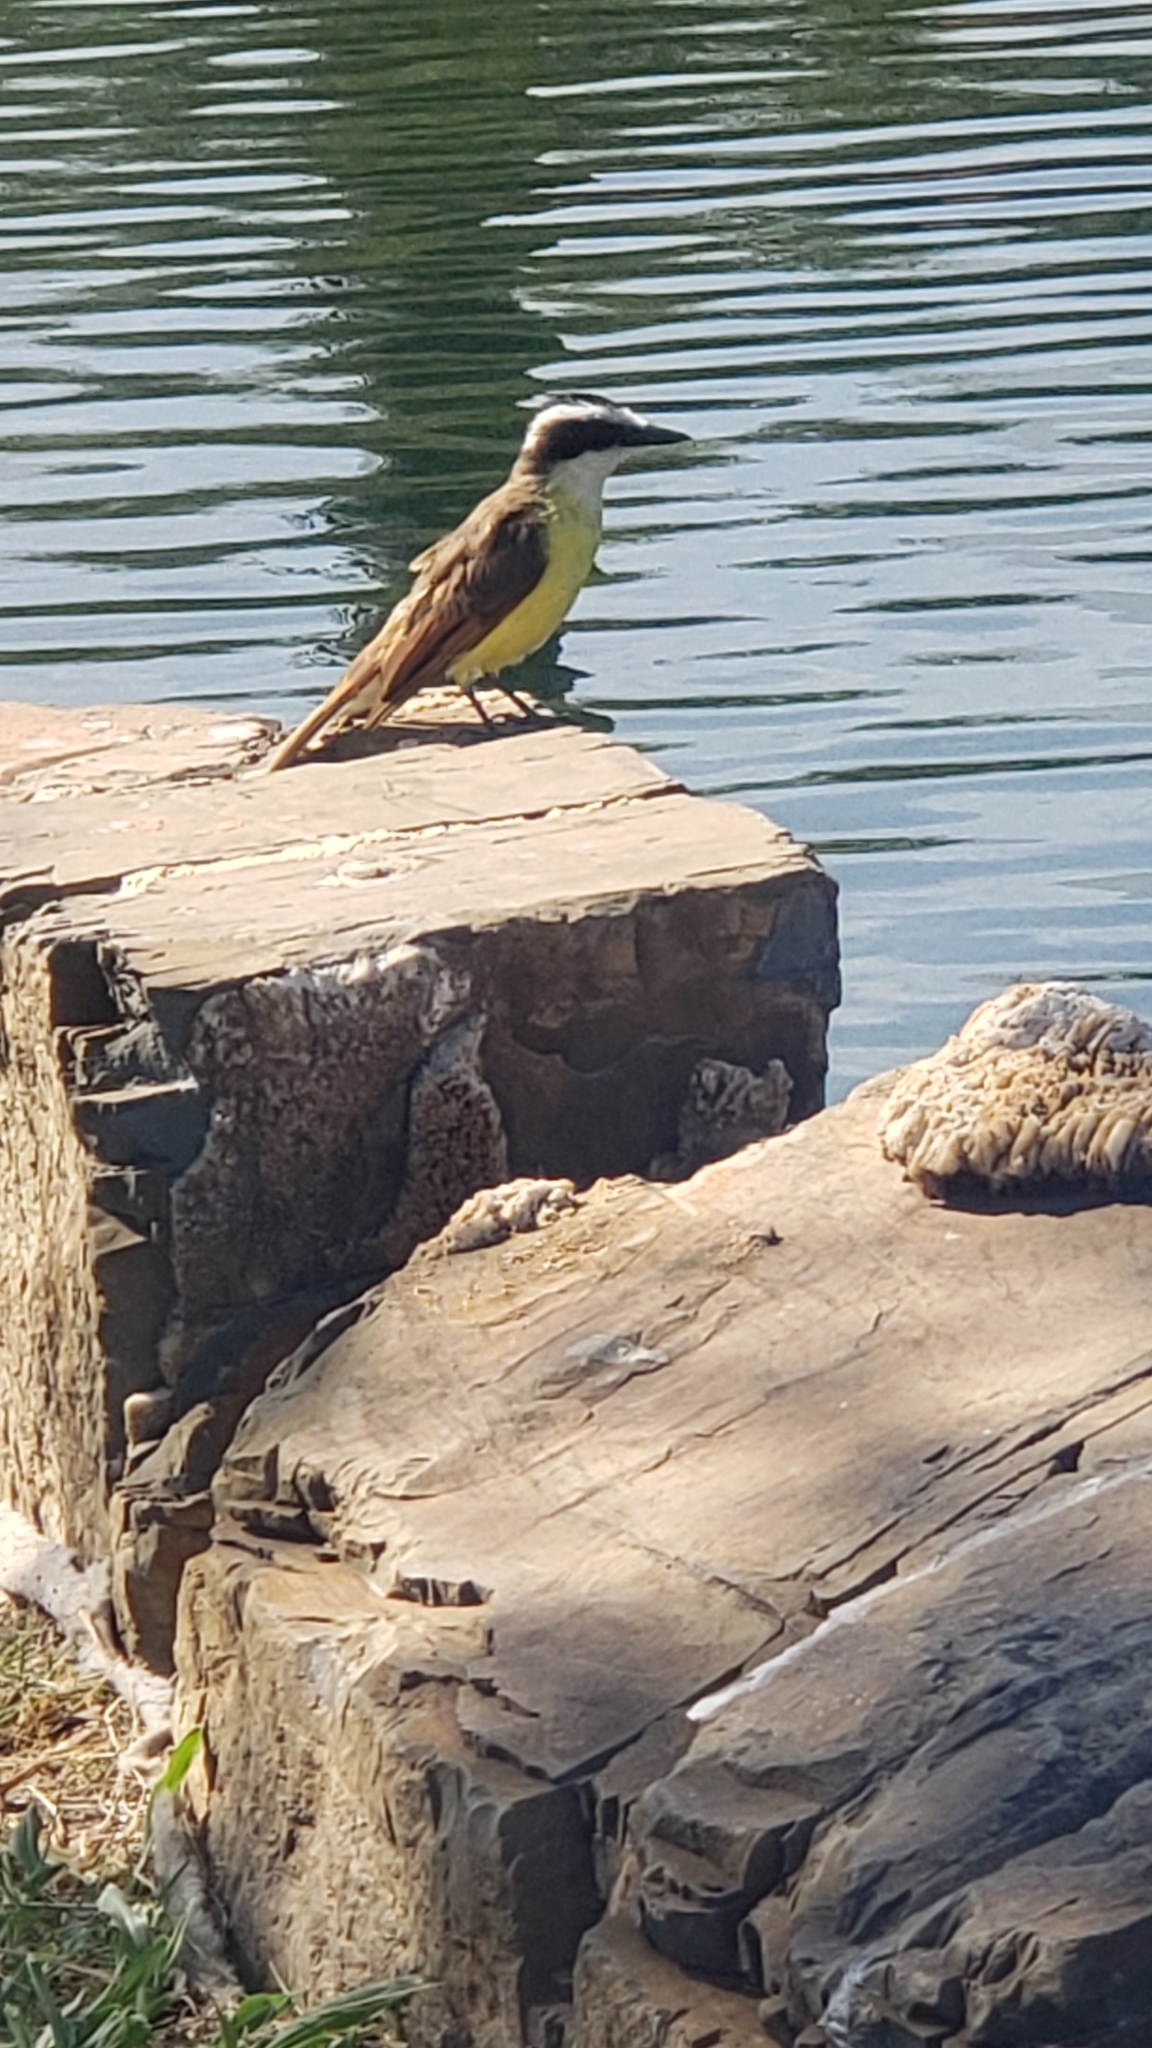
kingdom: Animalia
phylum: Chordata
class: Aves
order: Passeriformes
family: Tyrannidae
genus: Pitangus
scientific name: Pitangus sulphuratus
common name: Great kiskadee
